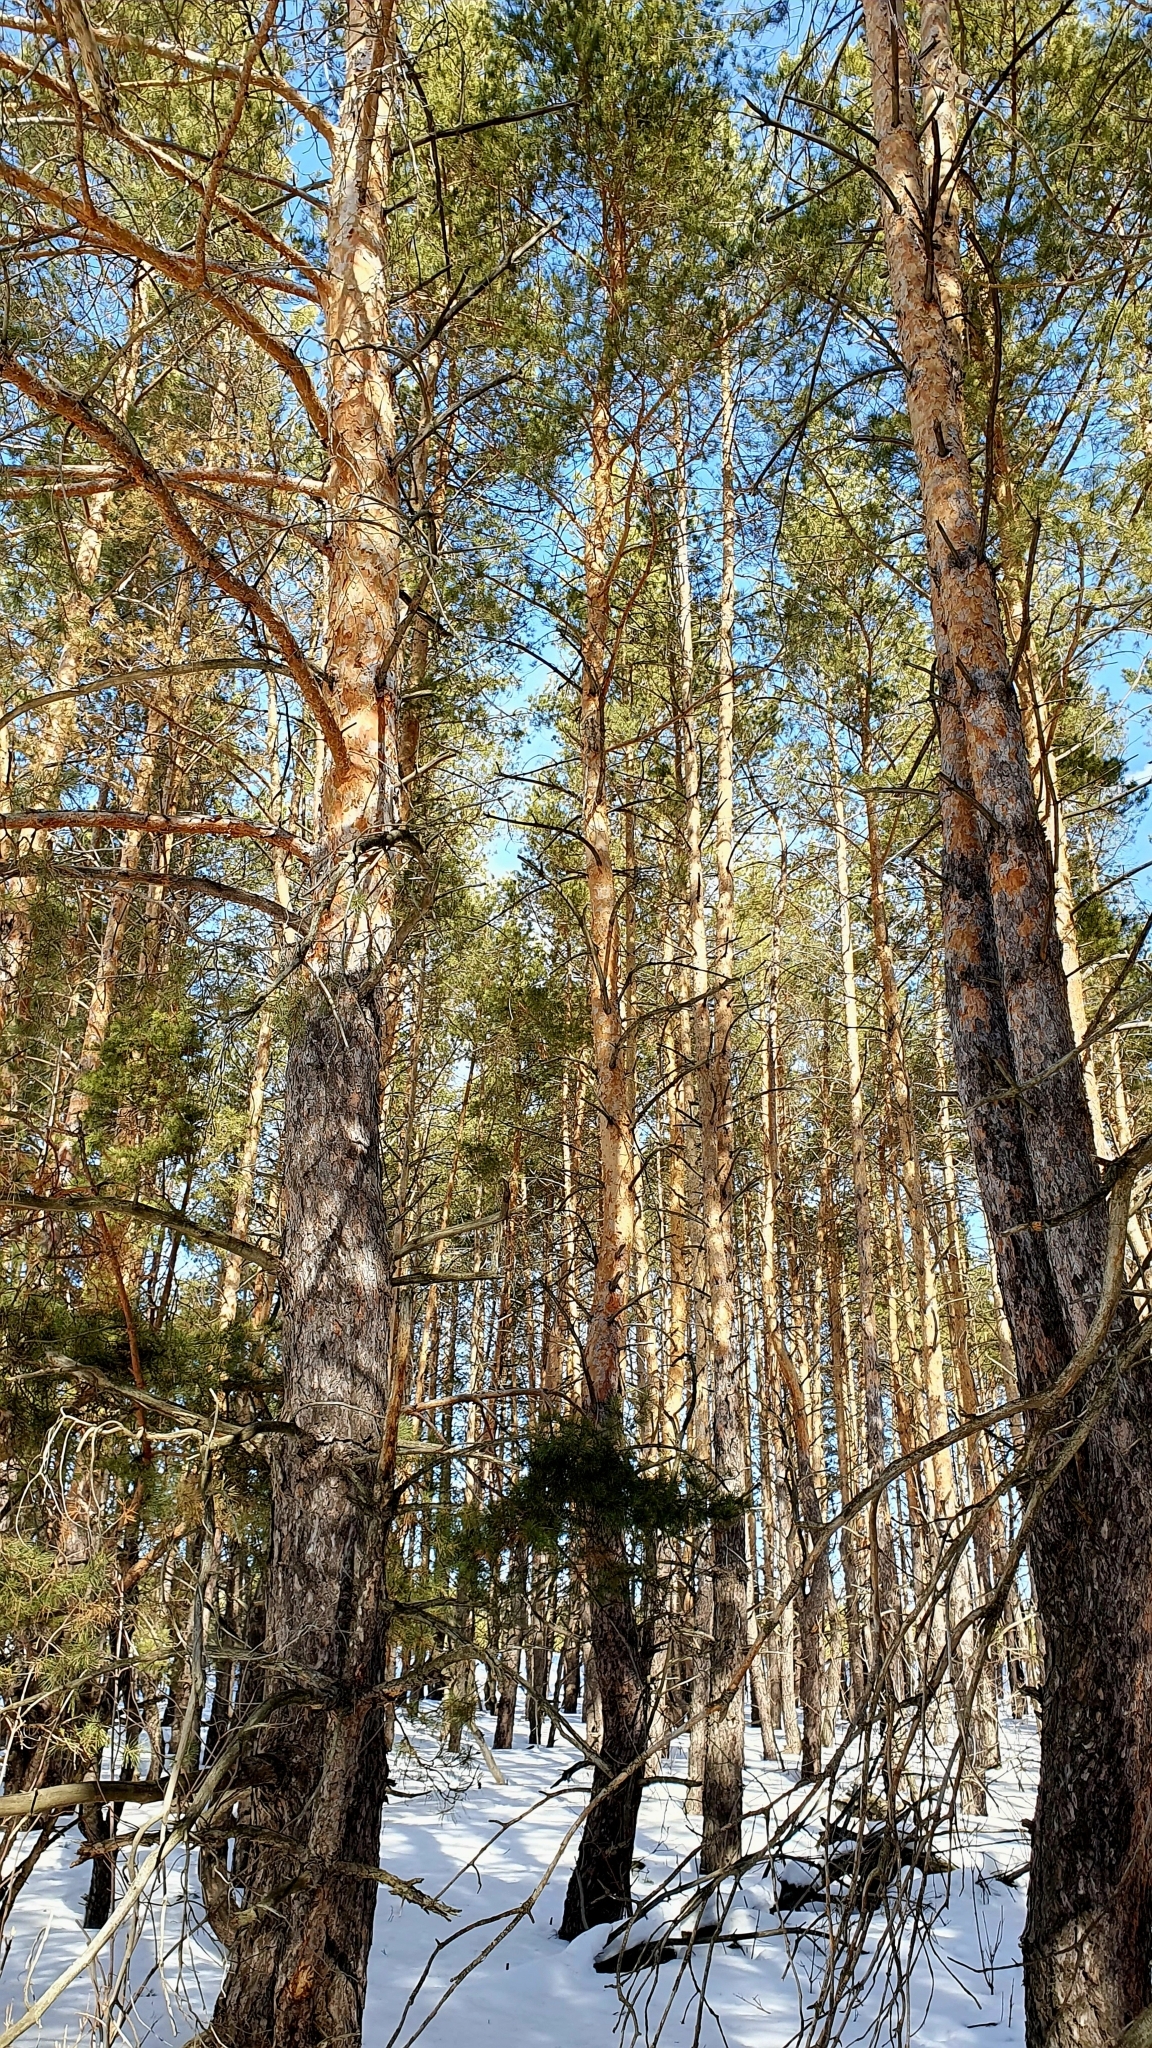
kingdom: Plantae
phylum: Tracheophyta
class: Pinopsida
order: Pinales
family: Pinaceae
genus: Pinus
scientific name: Pinus sylvestris
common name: Scots pine
